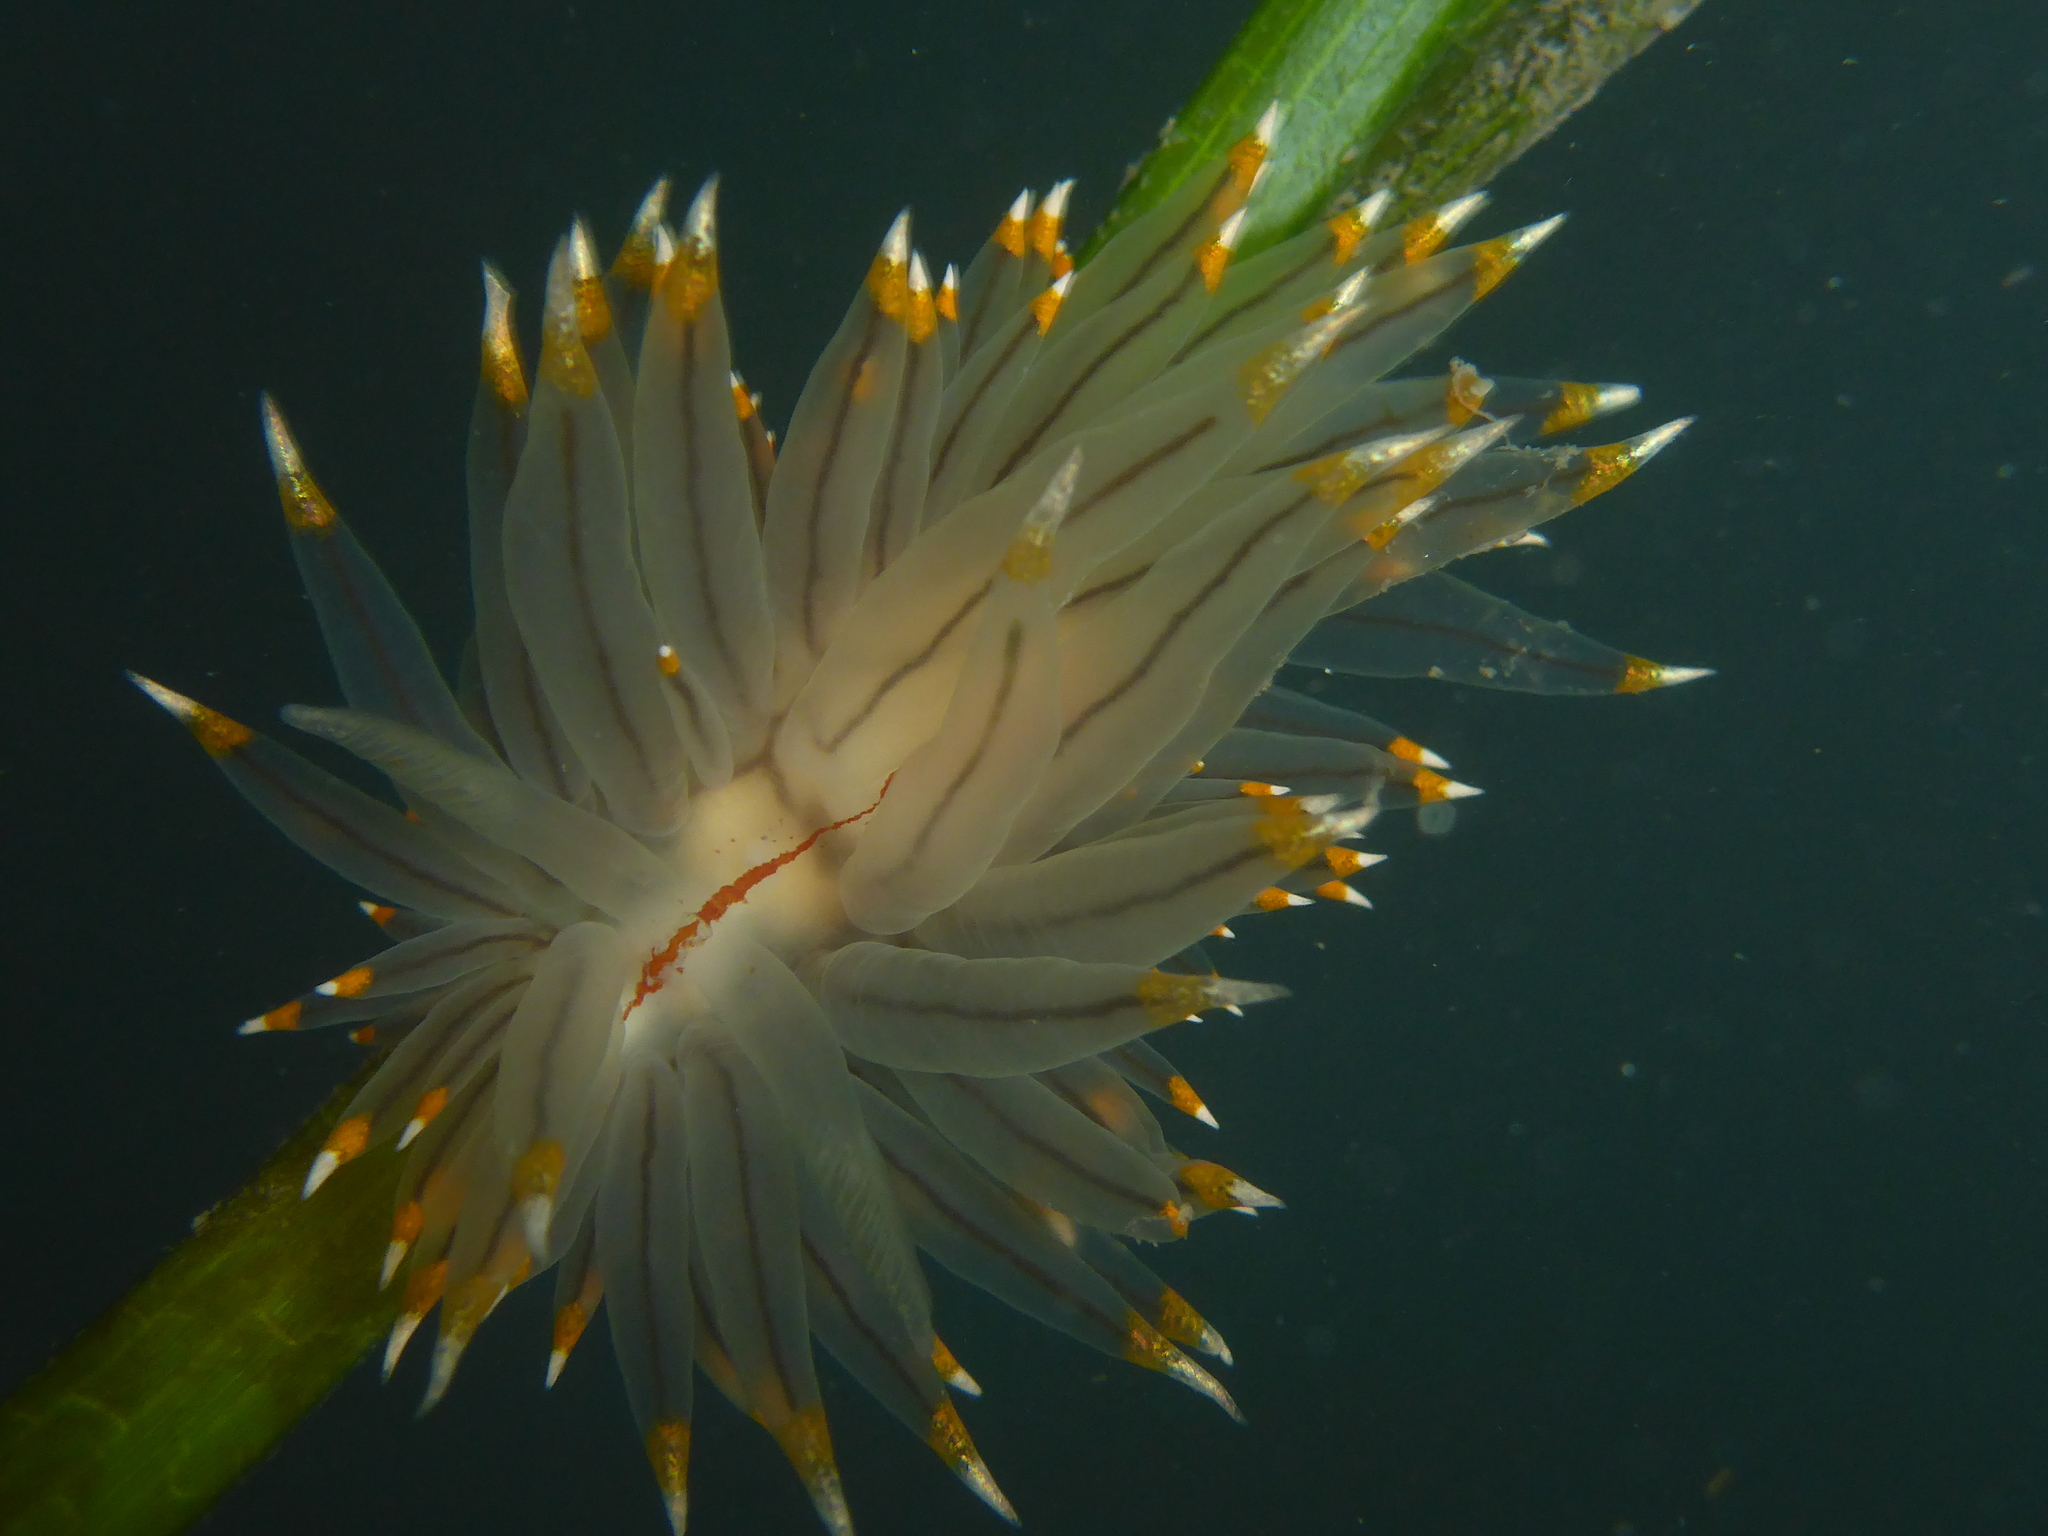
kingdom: Animalia
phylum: Mollusca
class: Gastropoda
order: Nudibranchia
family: Janolidae
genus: Antiopella
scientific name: Antiopella fusca
